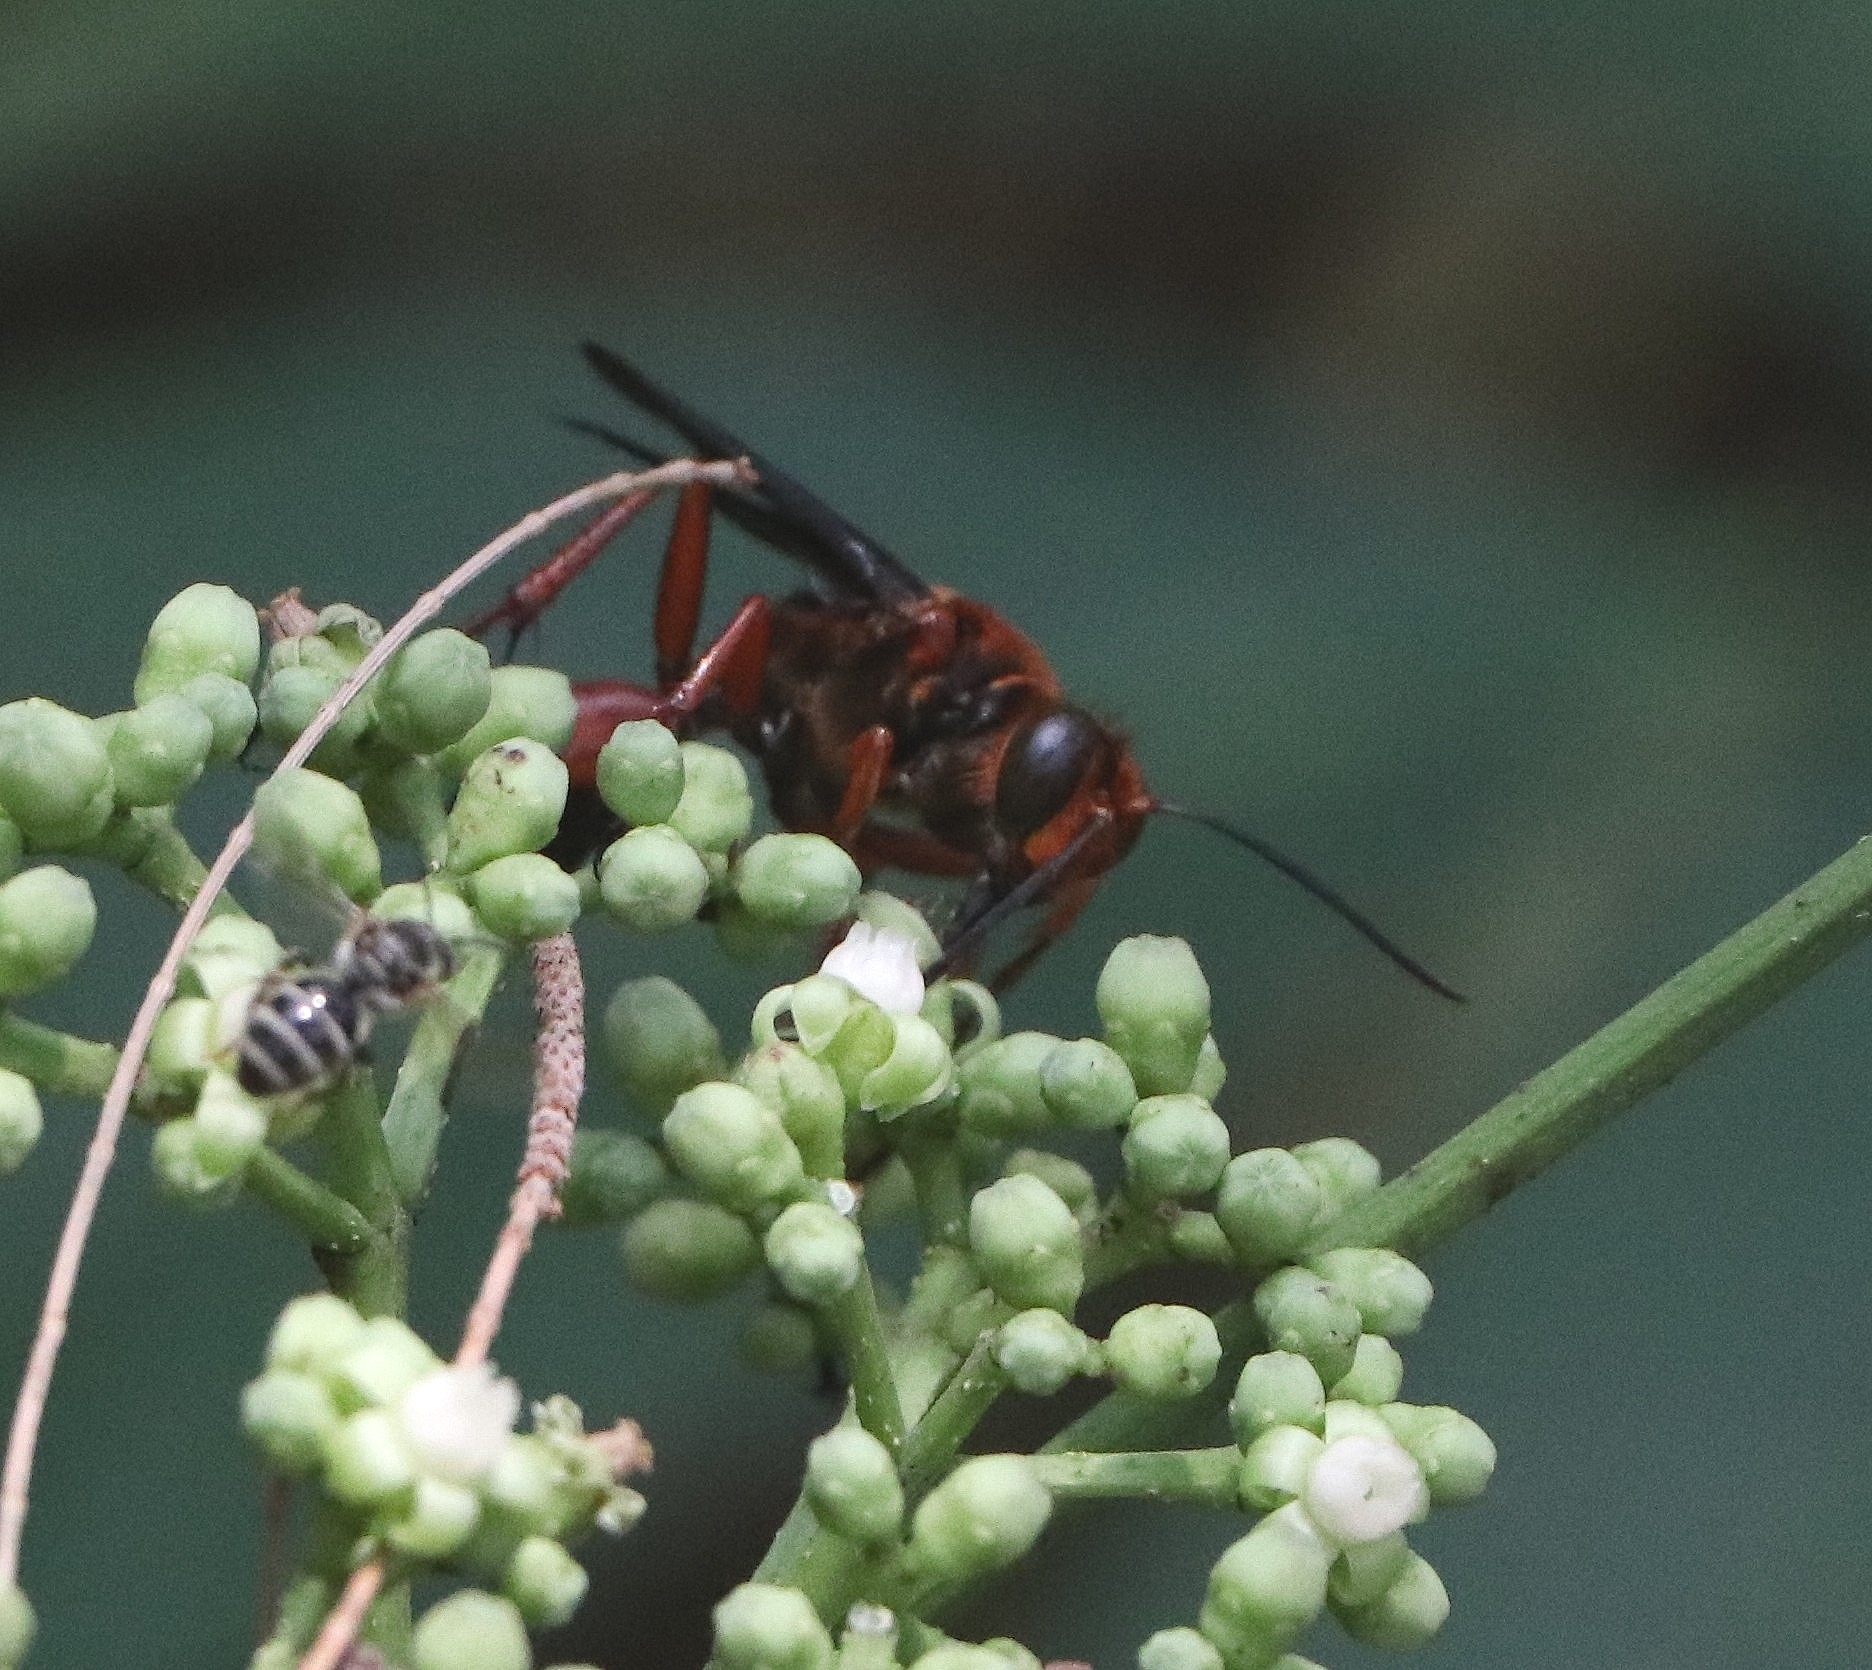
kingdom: Animalia
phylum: Arthropoda
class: Insecta
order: Hymenoptera
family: Sphecidae
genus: Sphex
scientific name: Sphex sericeus
